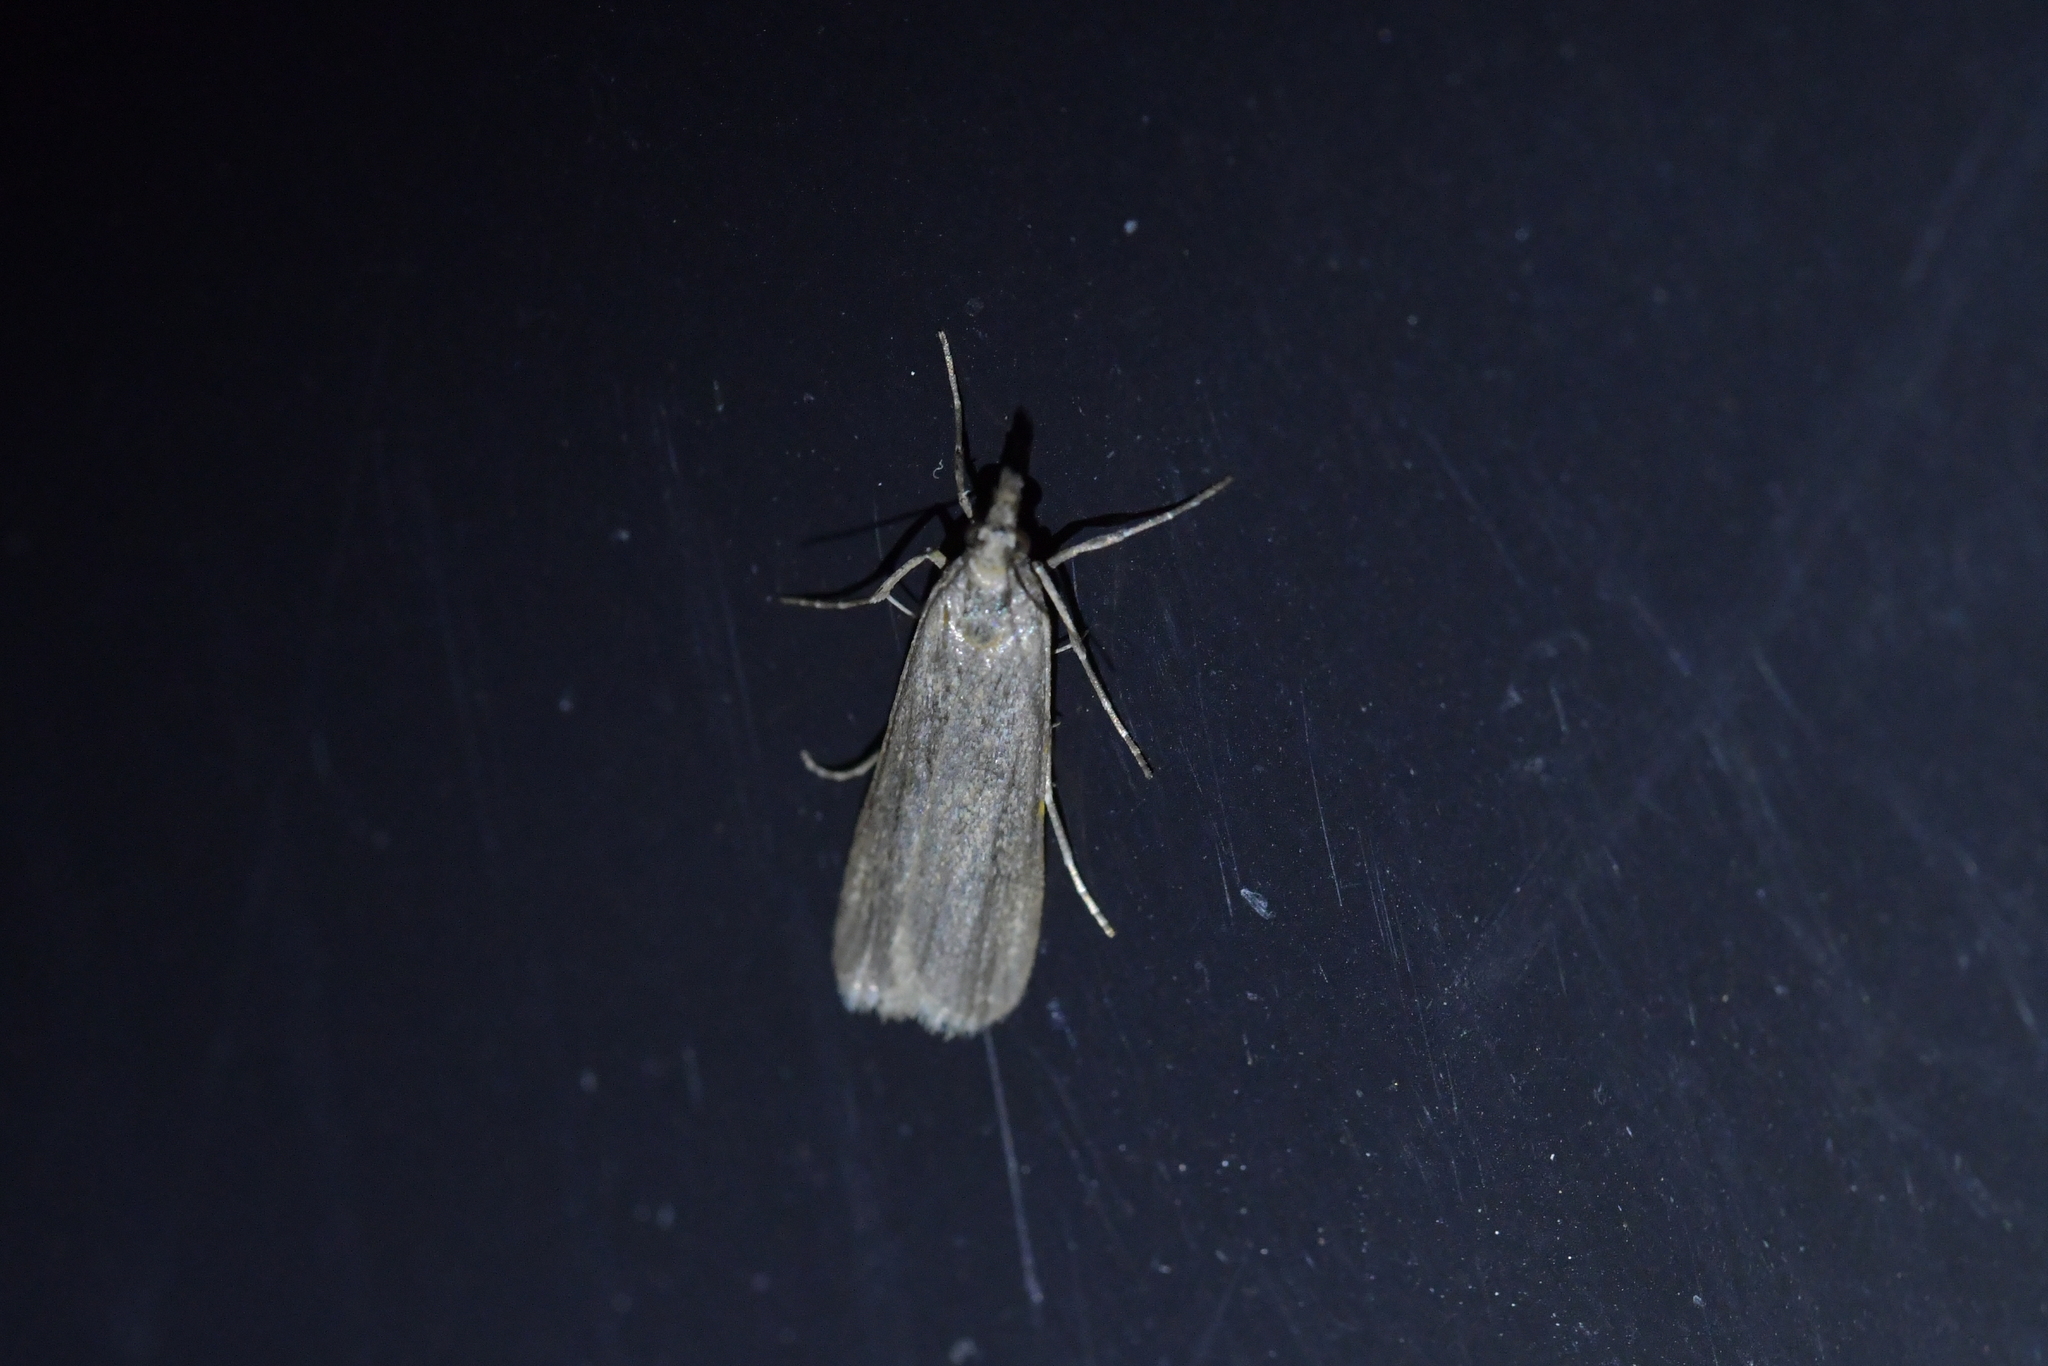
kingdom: Animalia
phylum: Arthropoda
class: Insecta
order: Lepidoptera
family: Crambidae
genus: Eudonia
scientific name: Eudonia leptalea
